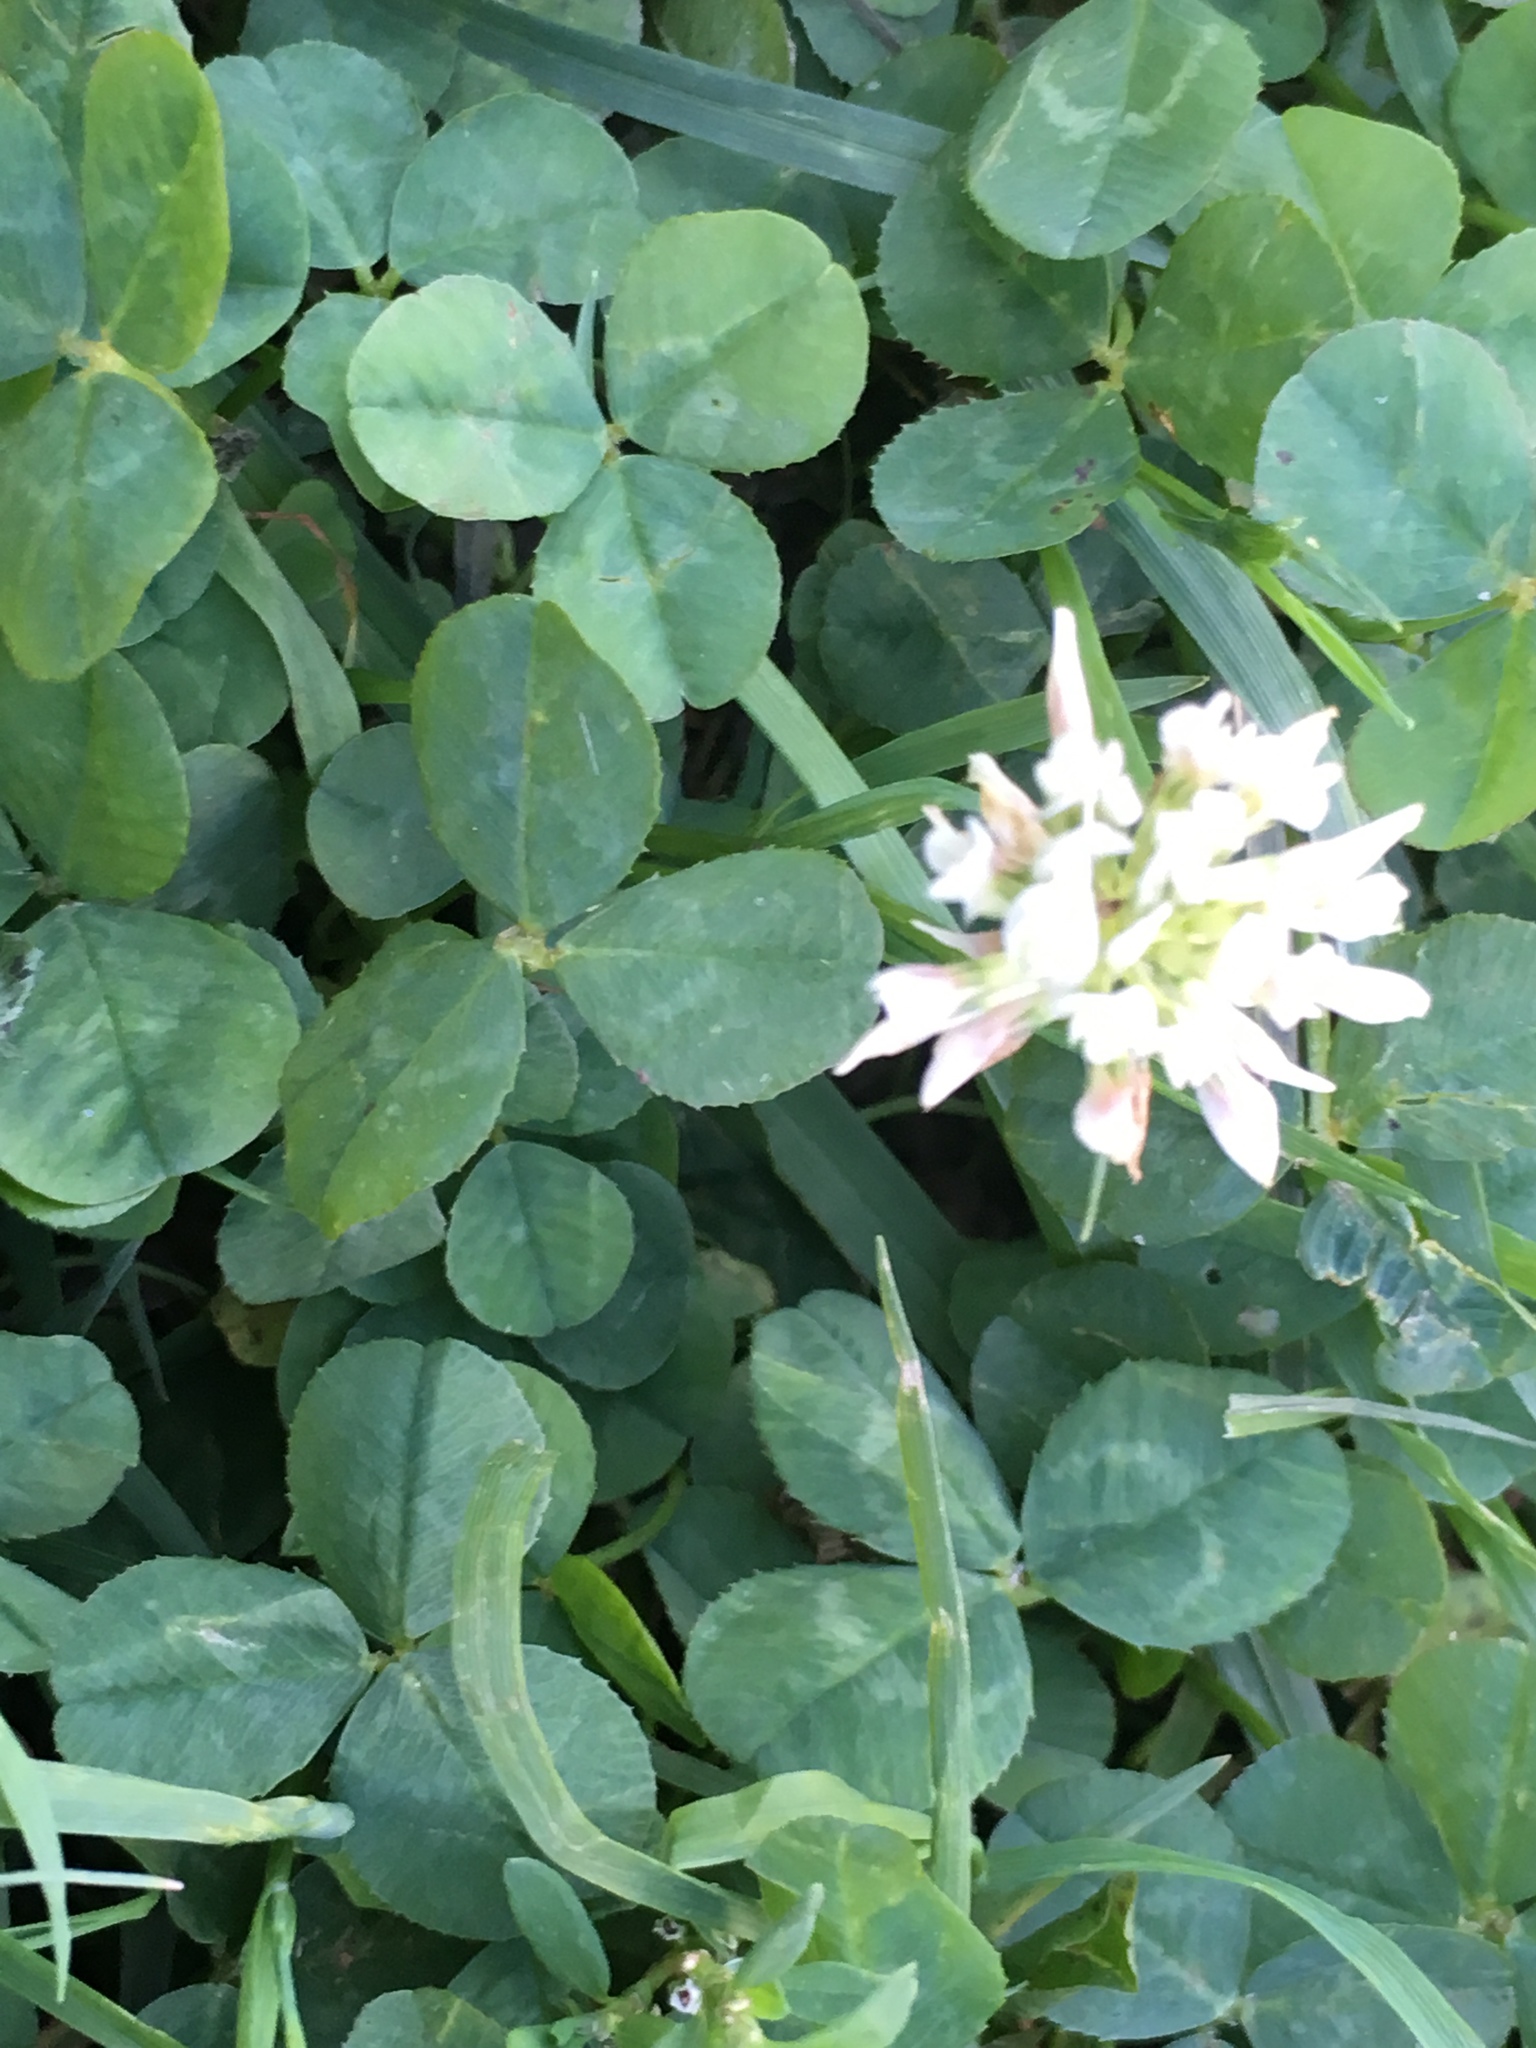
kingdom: Plantae
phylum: Tracheophyta
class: Magnoliopsida
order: Fabales
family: Fabaceae
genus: Trifolium
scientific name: Trifolium repens
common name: White clover
